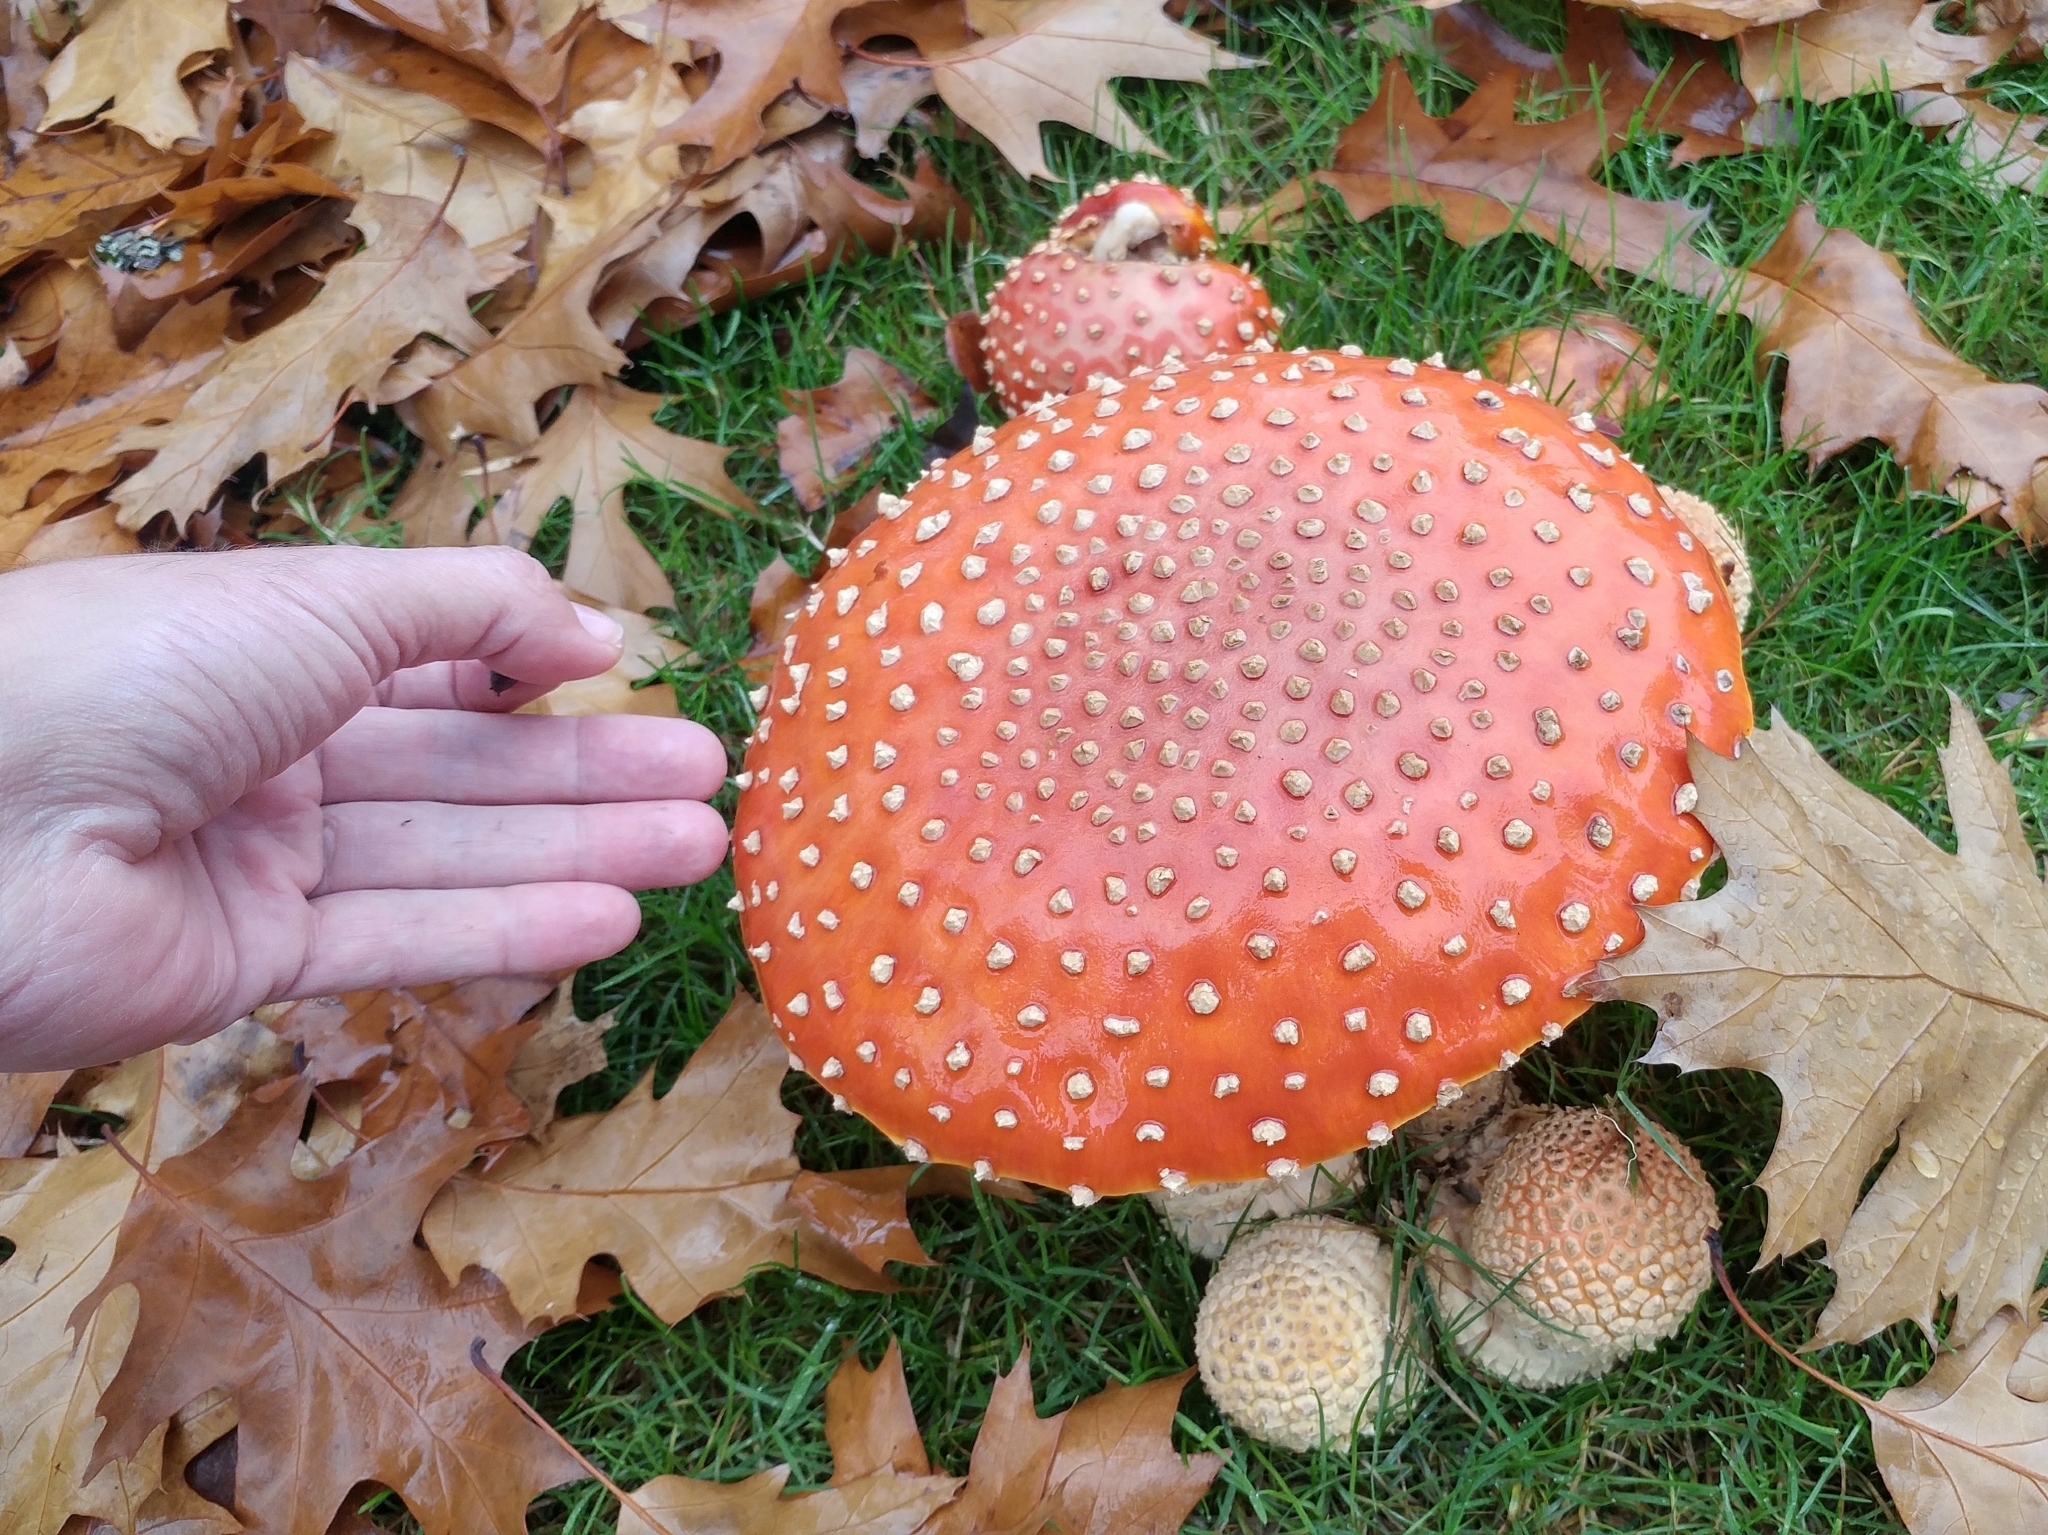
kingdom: Fungi
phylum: Basidiomycota
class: Agaricomycetes
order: Agaricales
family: Amanitaceae
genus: Amanita
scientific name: Amanita muscaria
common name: Fly agaric
